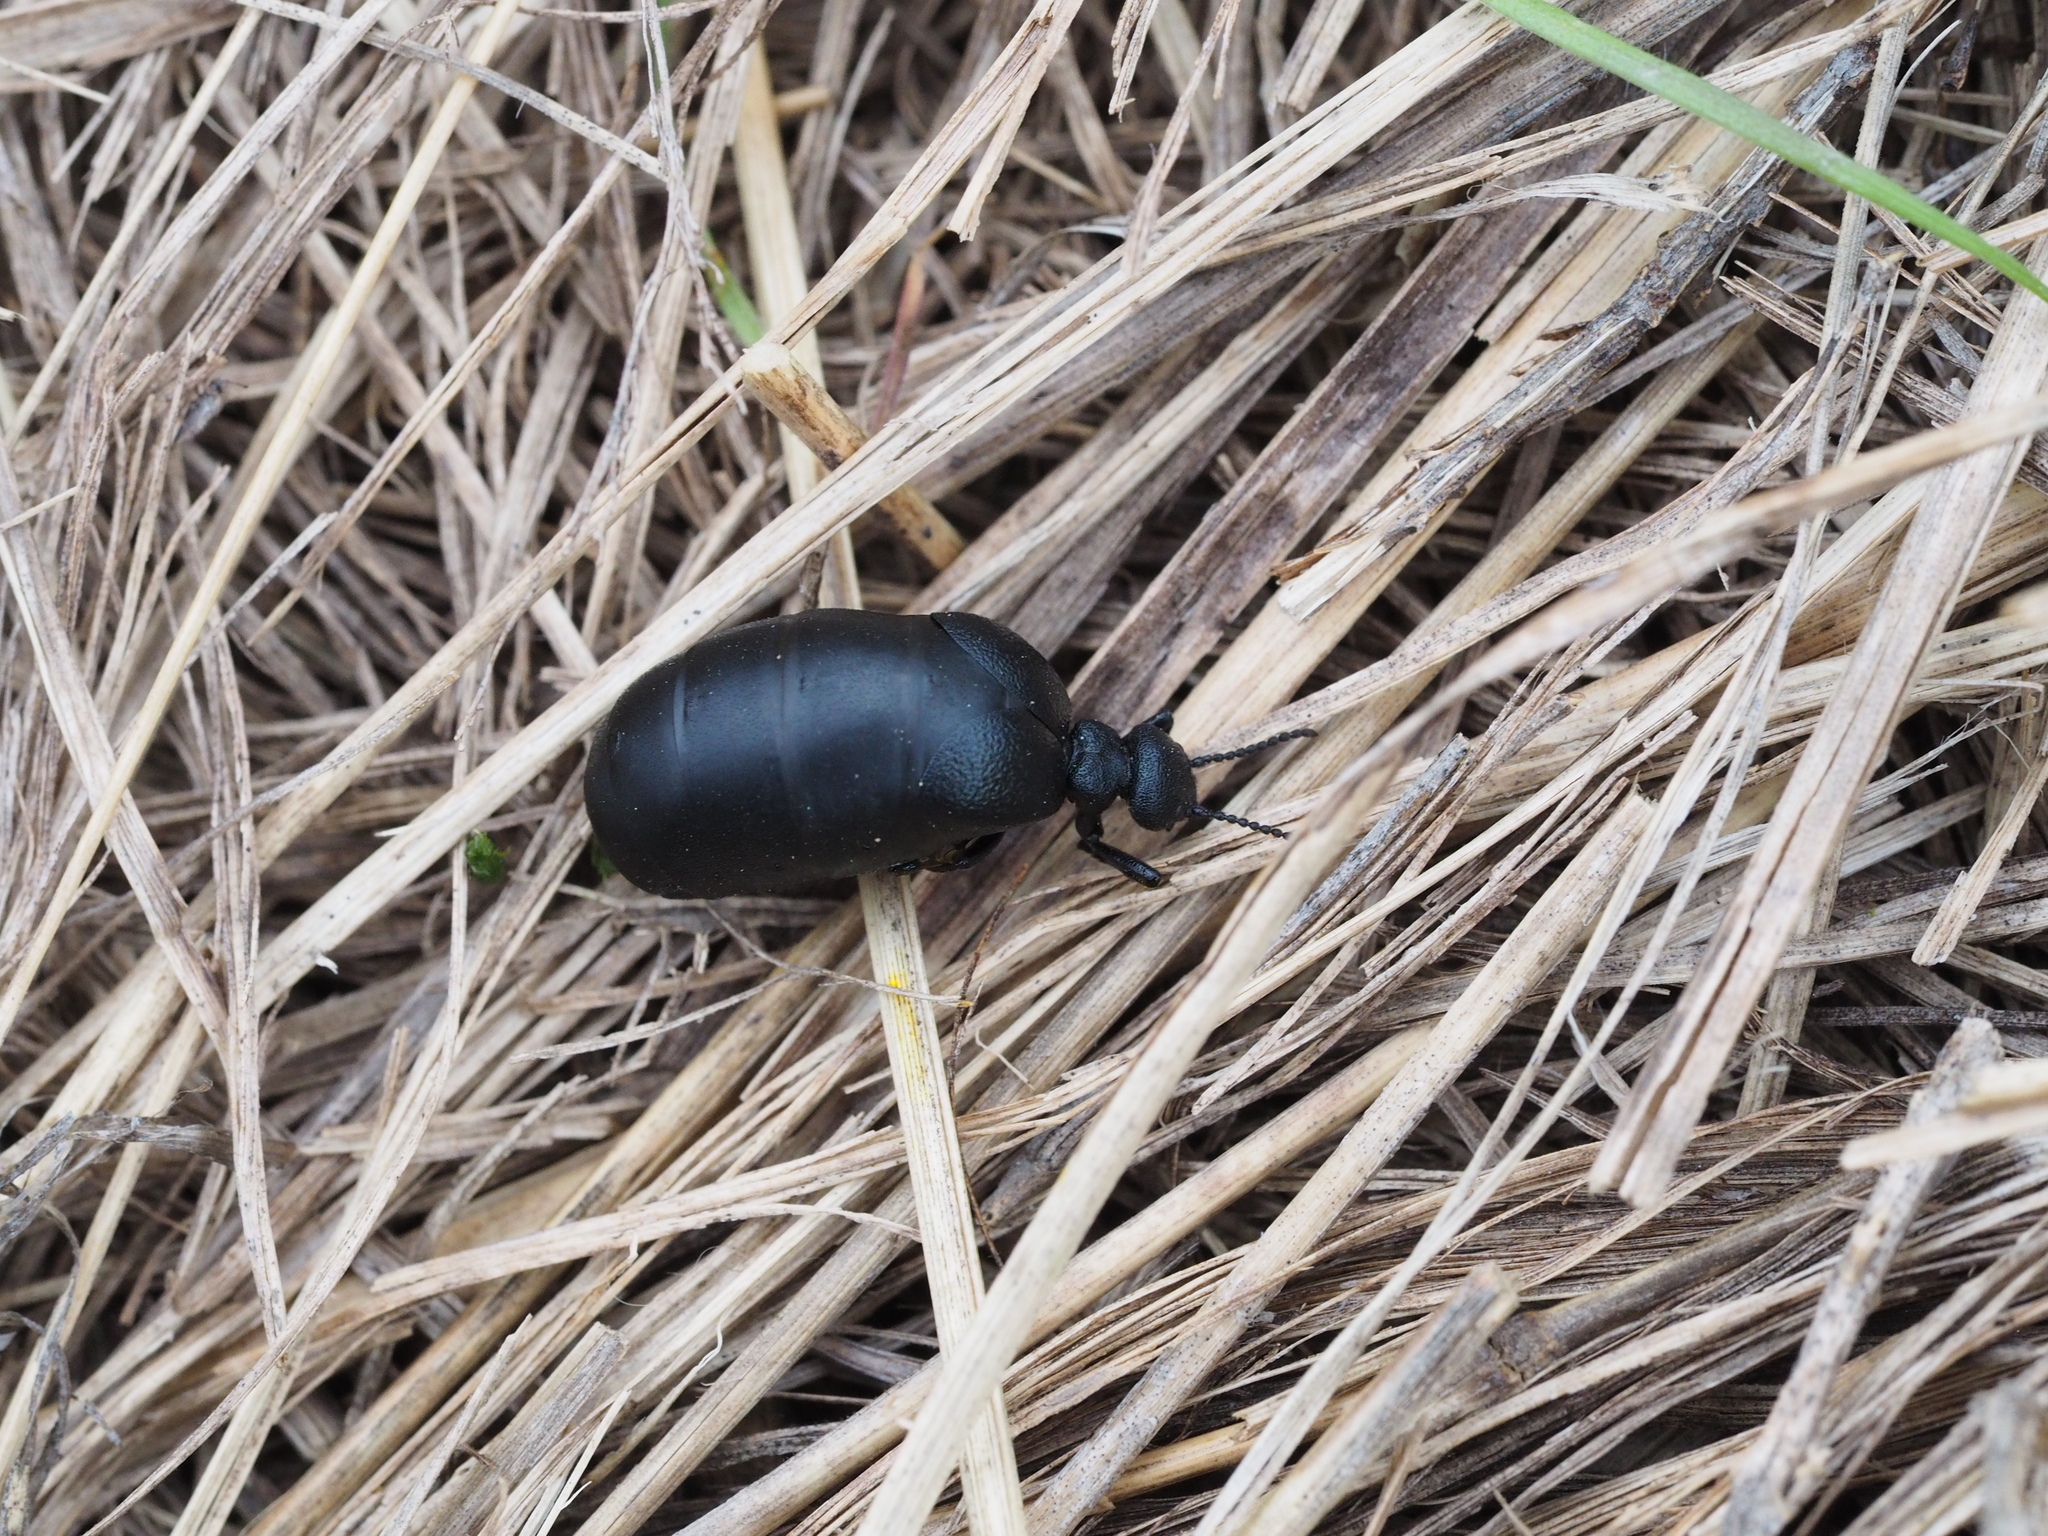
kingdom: Animalia
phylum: Arthropoda
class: Insecta
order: Coleoptera
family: Meloidae
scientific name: Meloidae
